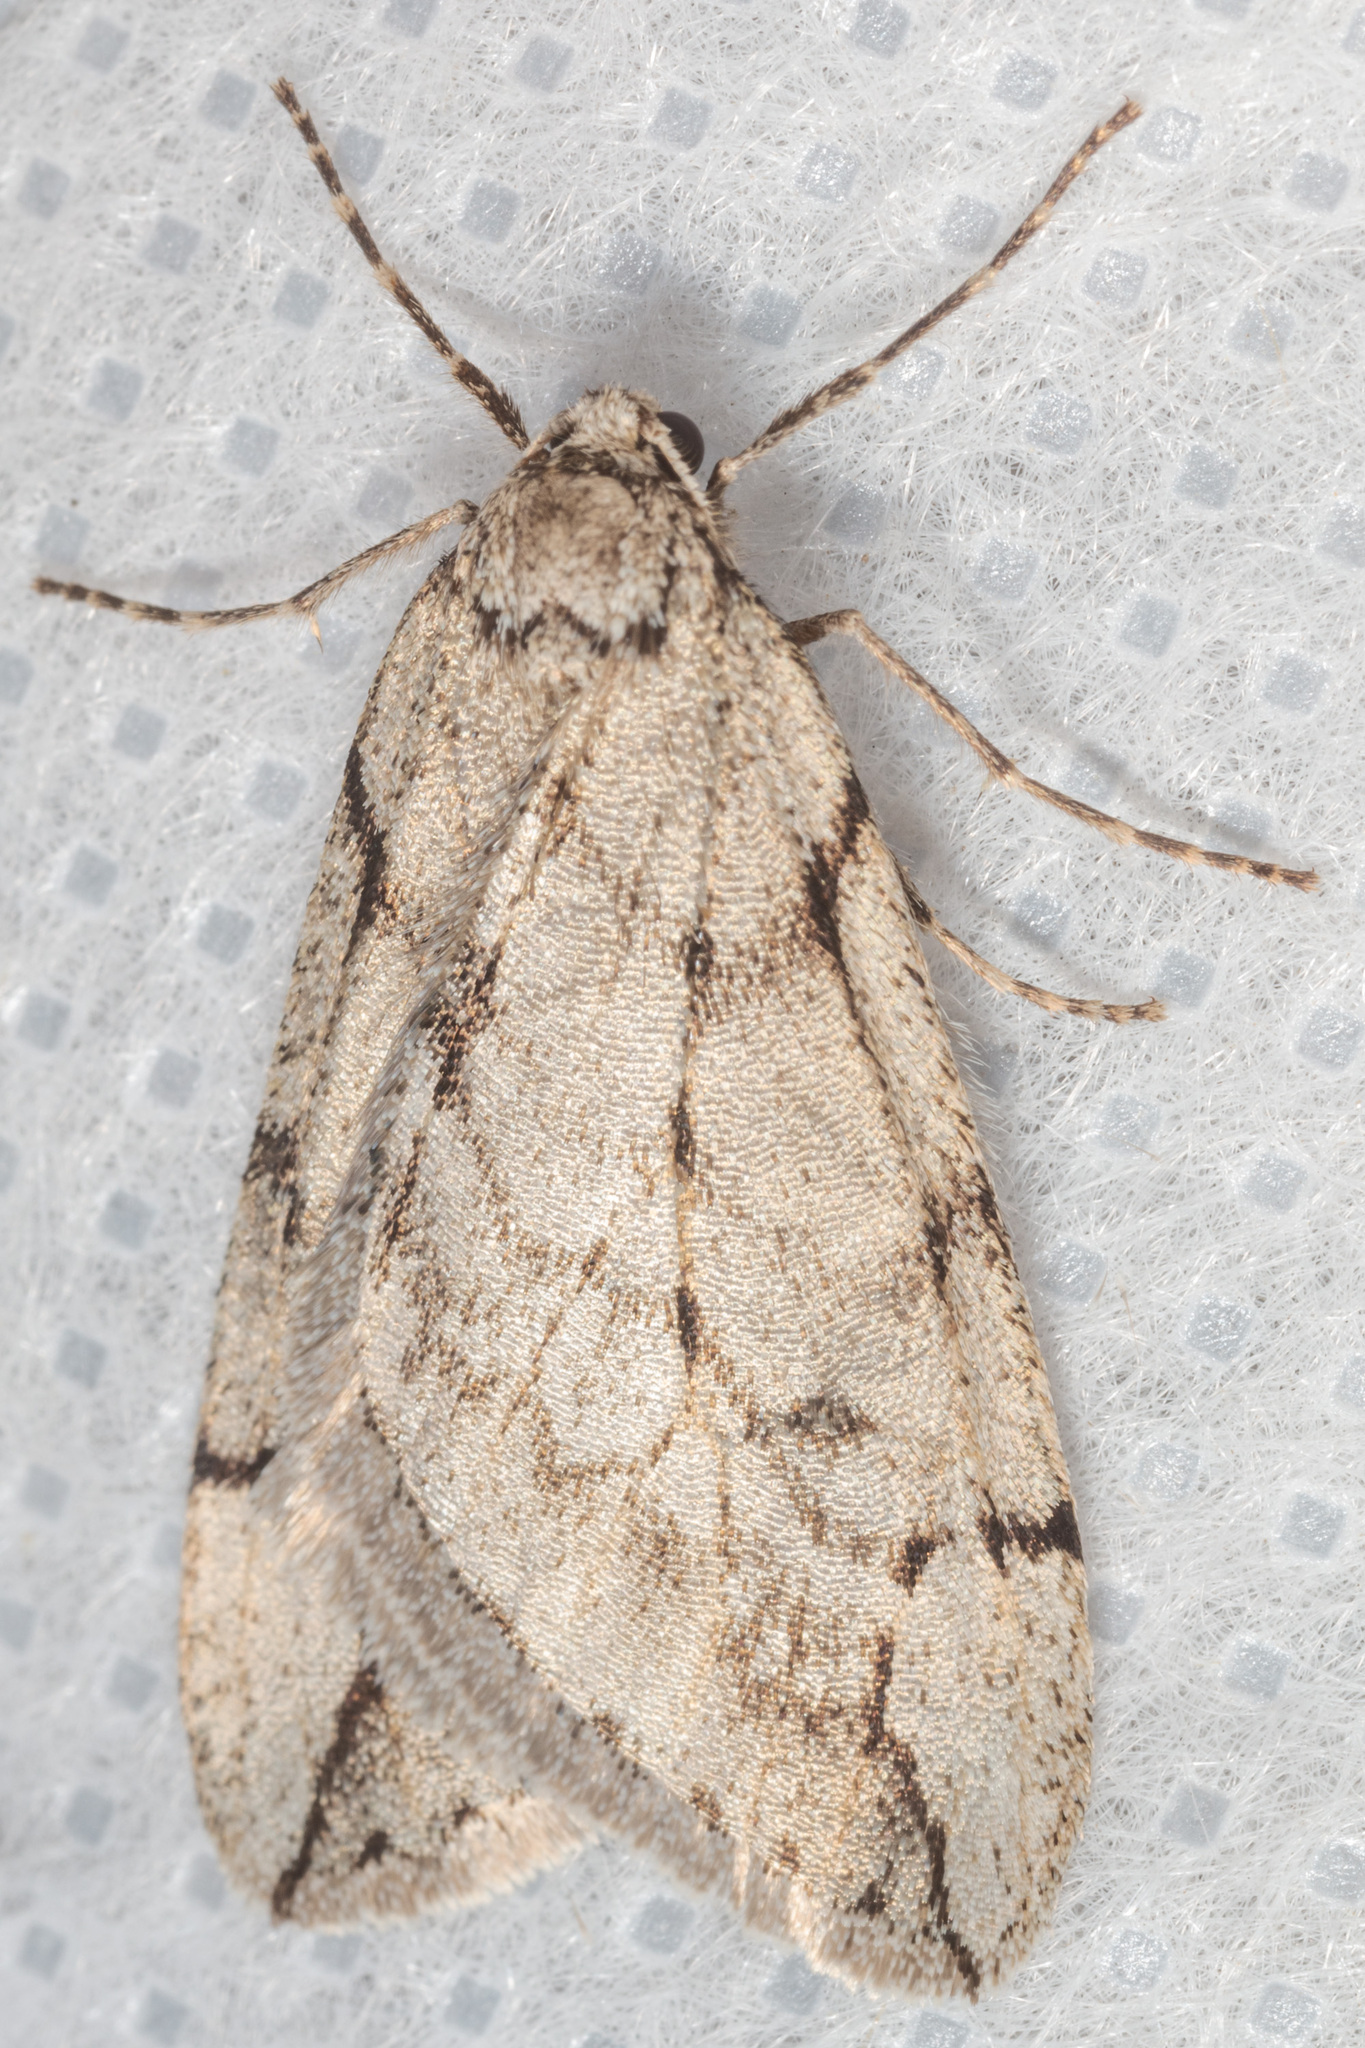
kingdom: Animalia
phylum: Arthropoda
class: Insecta
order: Lepidoptera
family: Geometridae
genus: Paleacrita
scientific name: Paleacrita vernata
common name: Spring cankerworm
